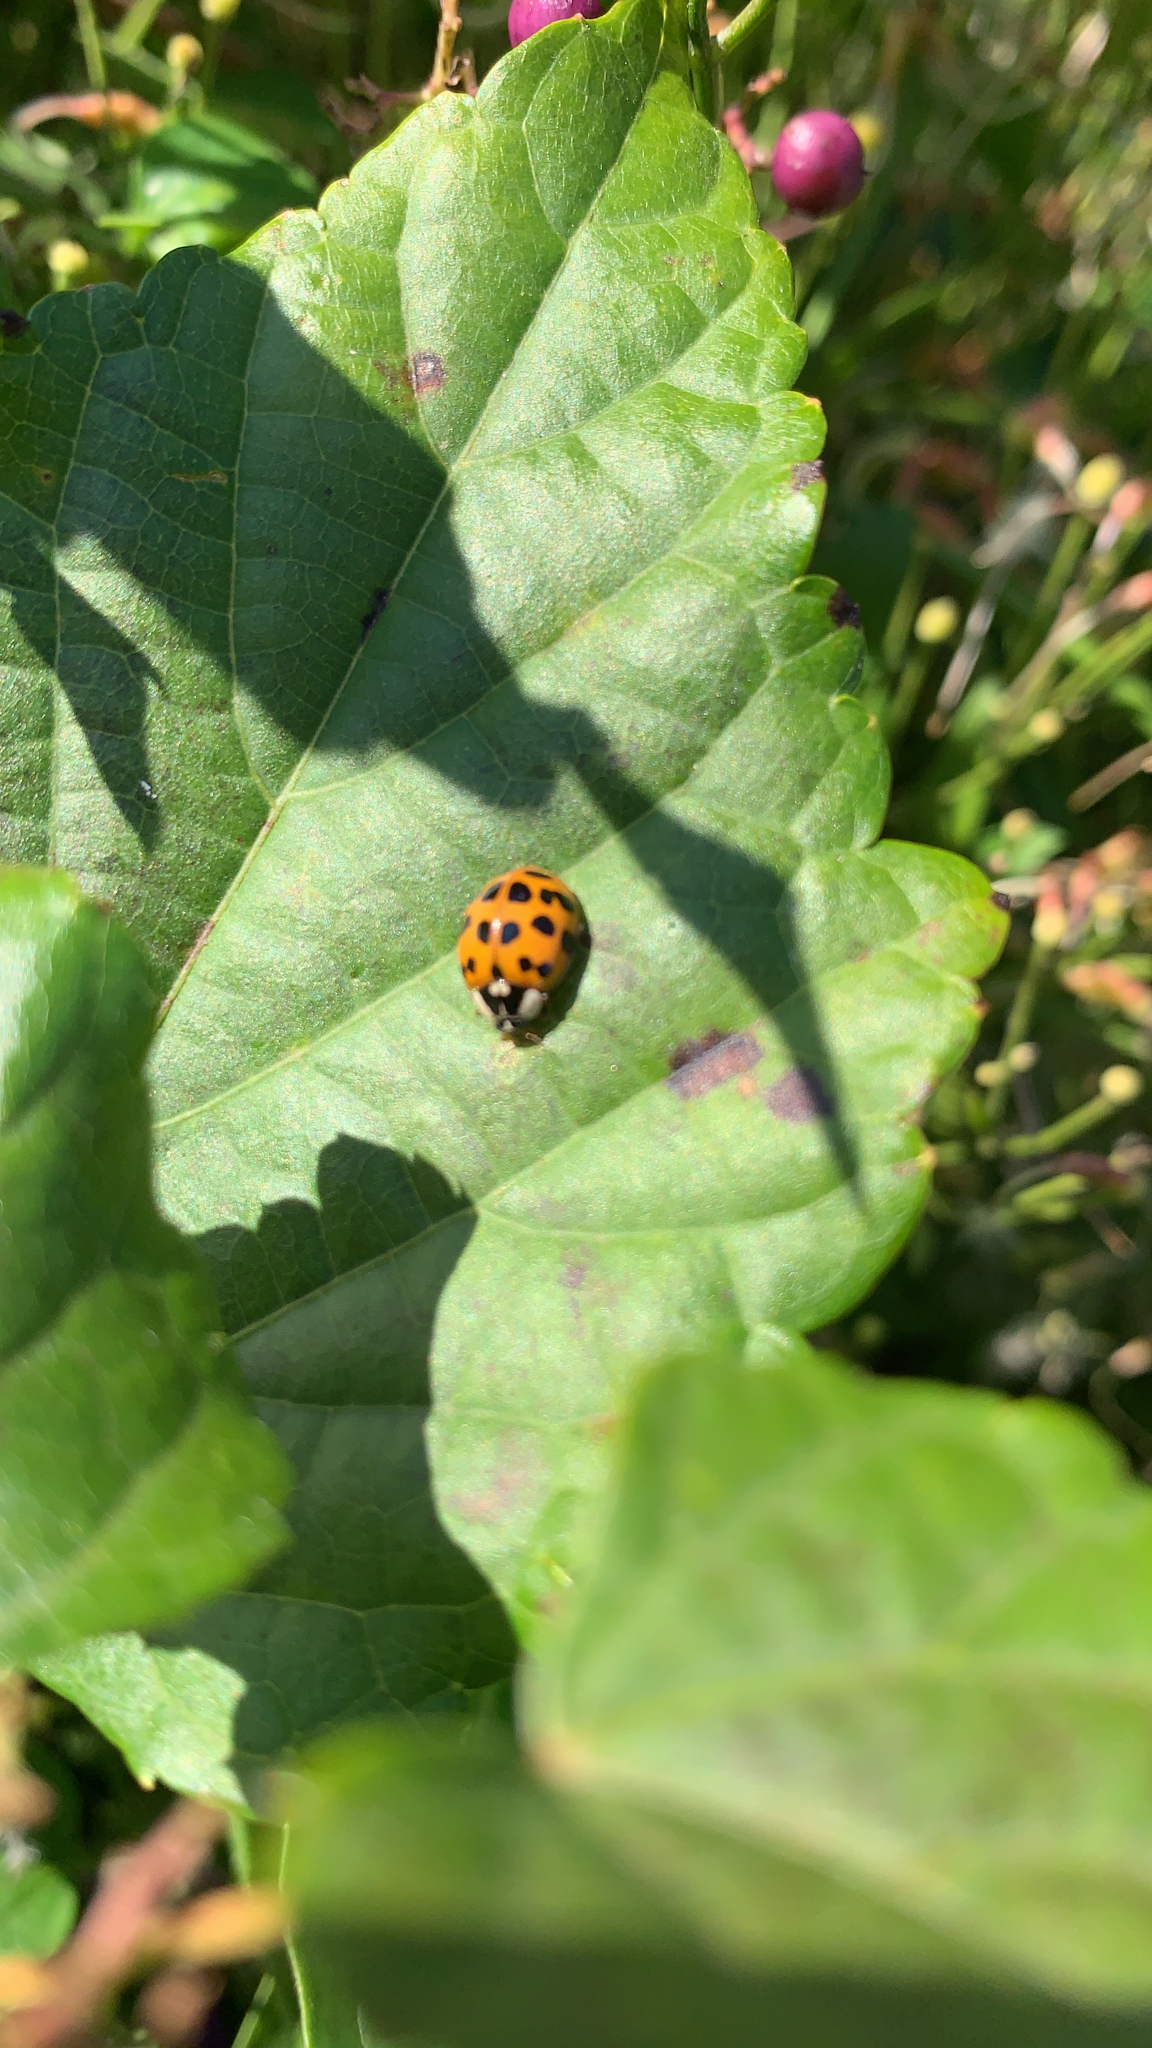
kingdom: Animalia
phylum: Arthropoda
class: Insecta
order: Coleoptera
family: Coccinellidae
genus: Harmonia
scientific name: Harmonia axyridis
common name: Harlequin ladybird
